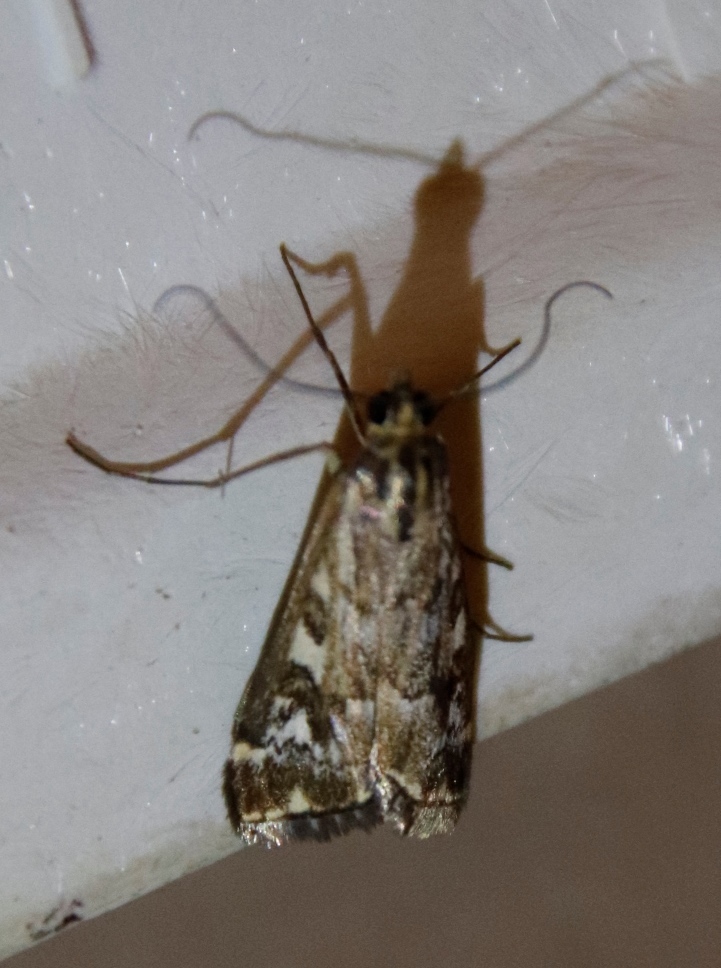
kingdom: Animalia
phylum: Arthropoda
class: Insecta
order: Lepidoptera
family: Crambidae
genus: Loxostege
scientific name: Loxostege frustalis
